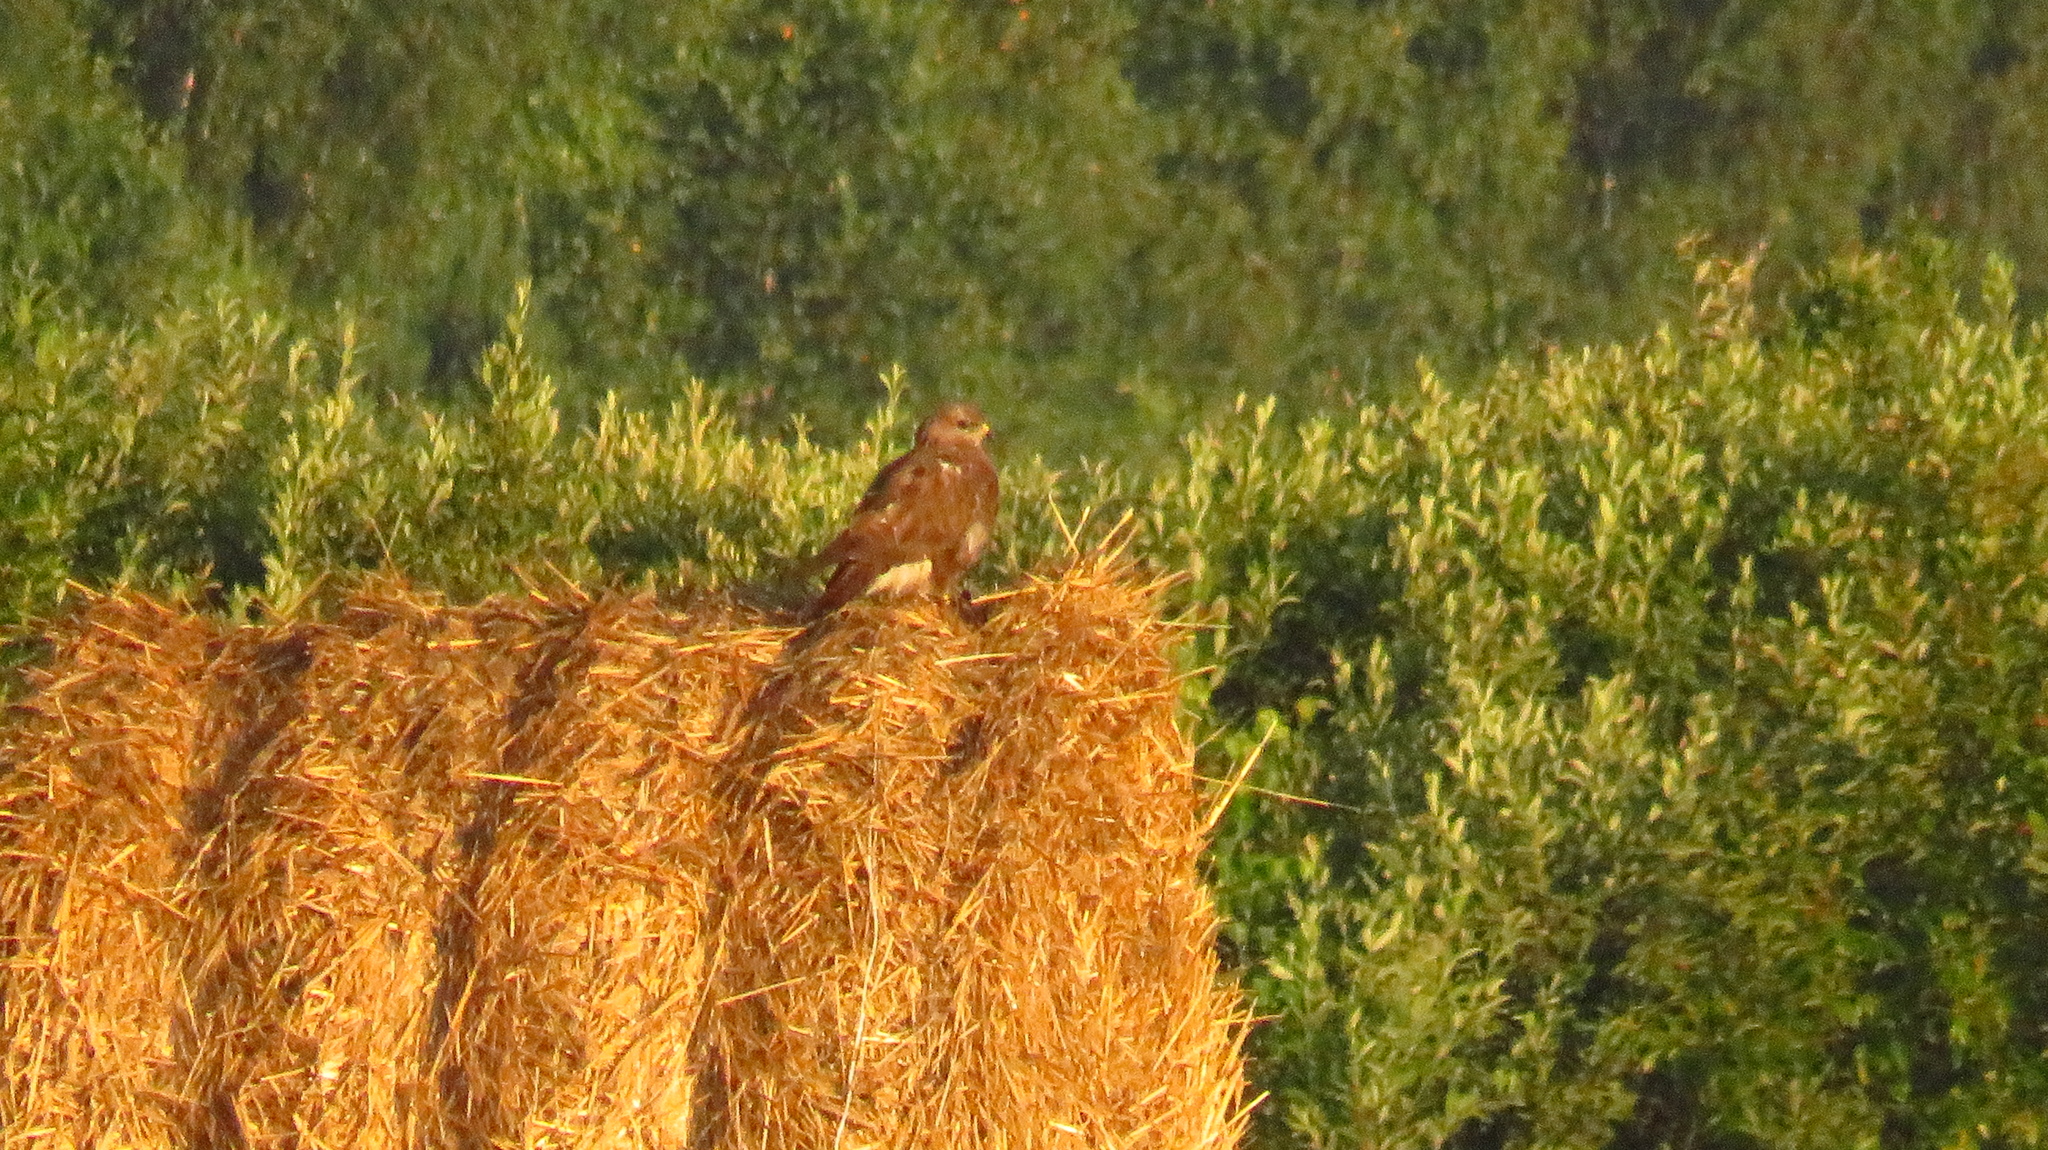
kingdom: Animalia
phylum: Chordata
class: Aves
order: Accipitriformes
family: Accipitridae
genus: Buteo
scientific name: Buteo buteo
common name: Common buzzard
